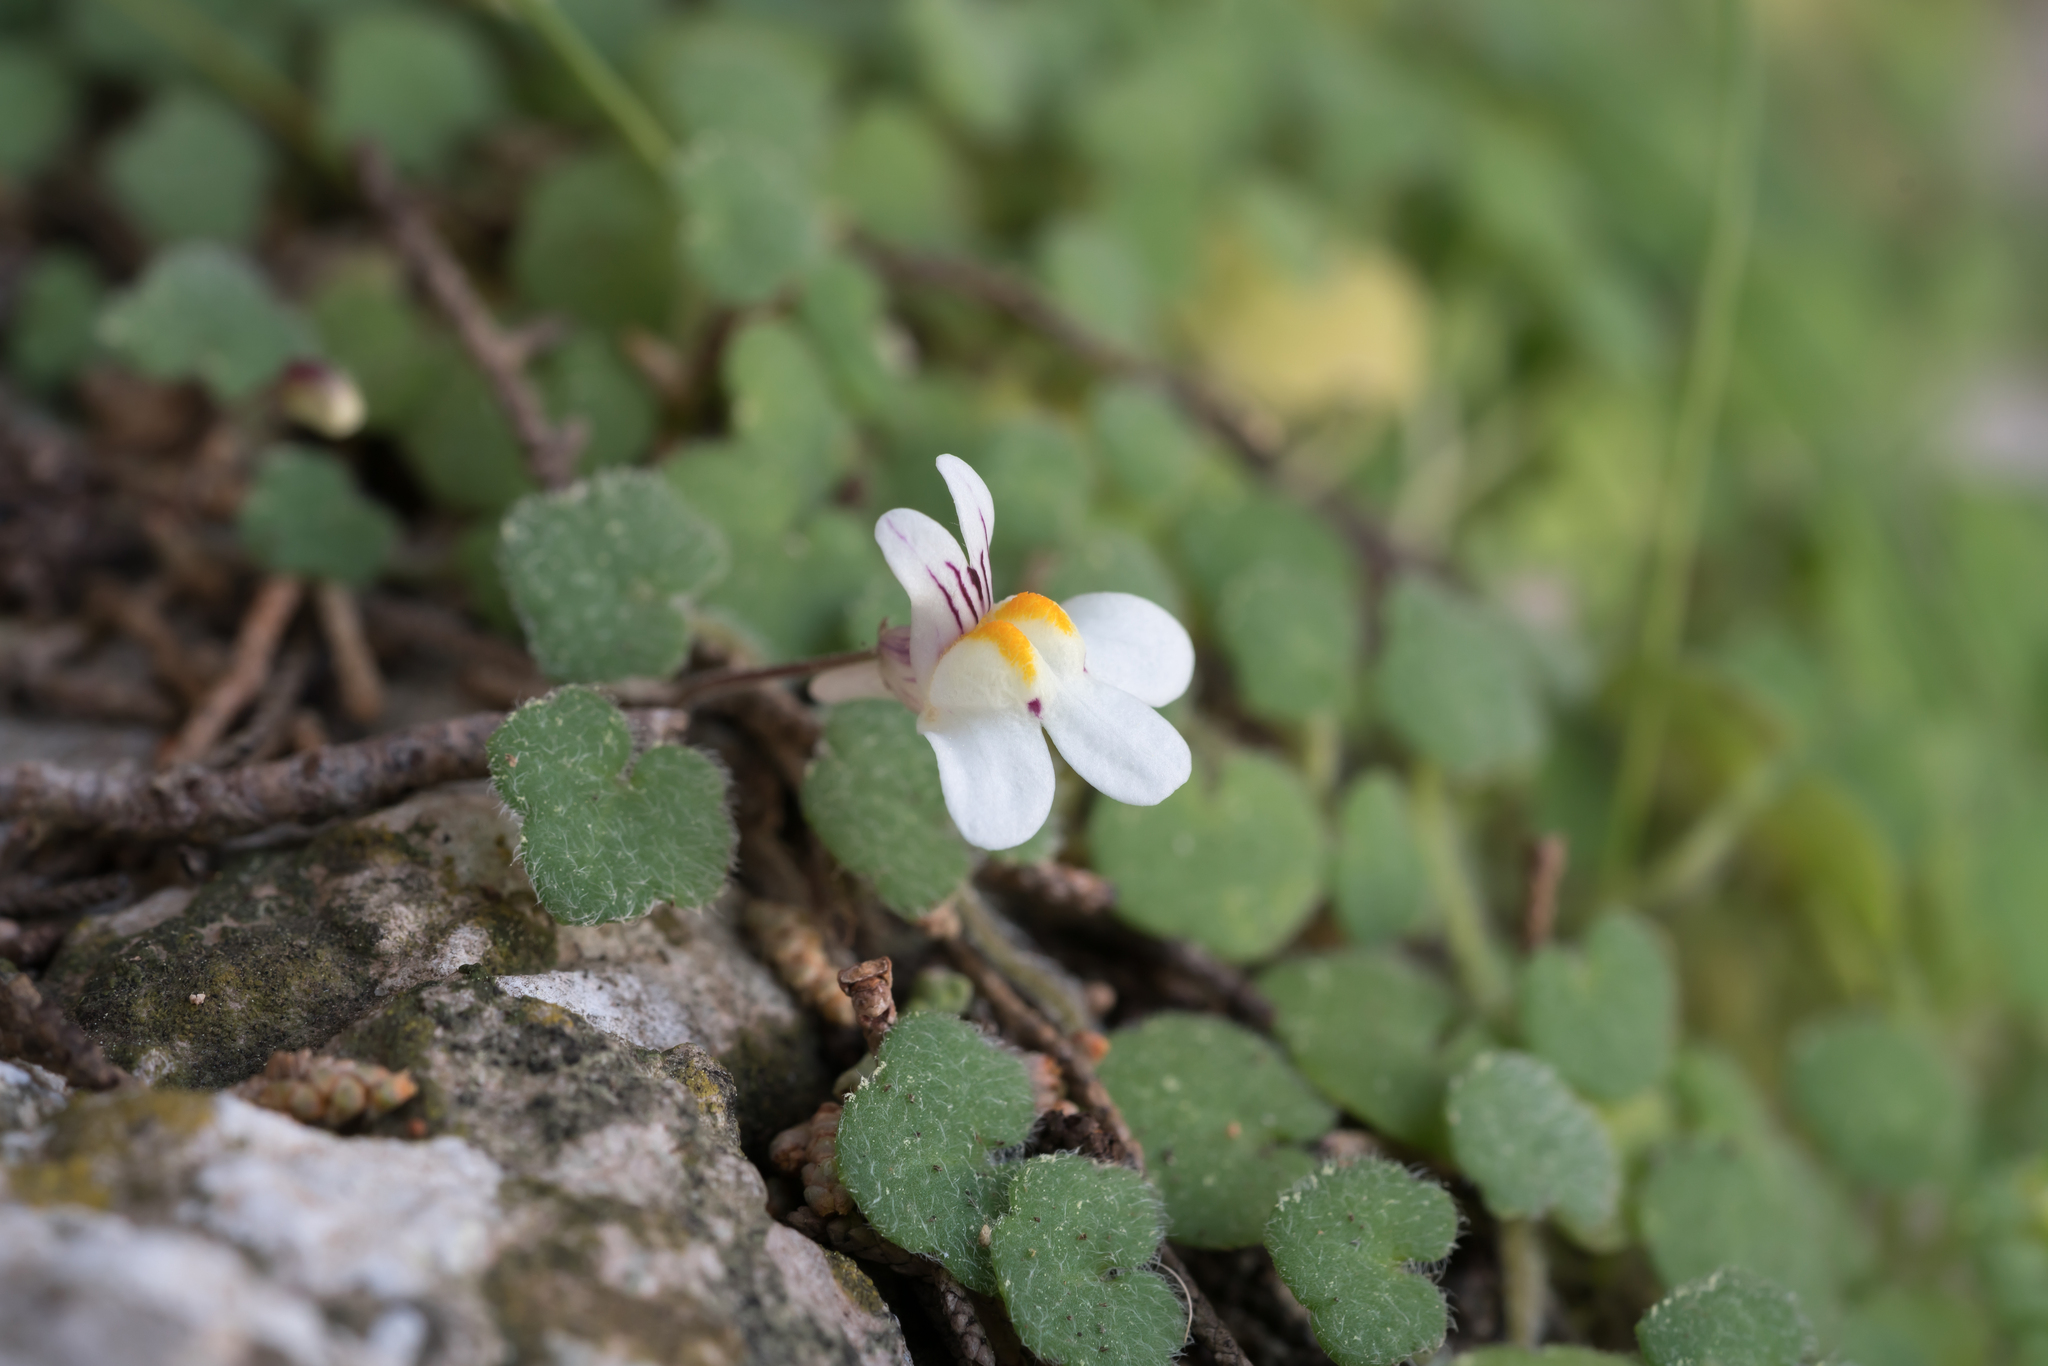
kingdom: Plantae
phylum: Tracheophyta
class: Magnoliopsida
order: Lamiales
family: Plantaginaceae
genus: Cymbalaria
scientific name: Cymbalaria acutiloba
